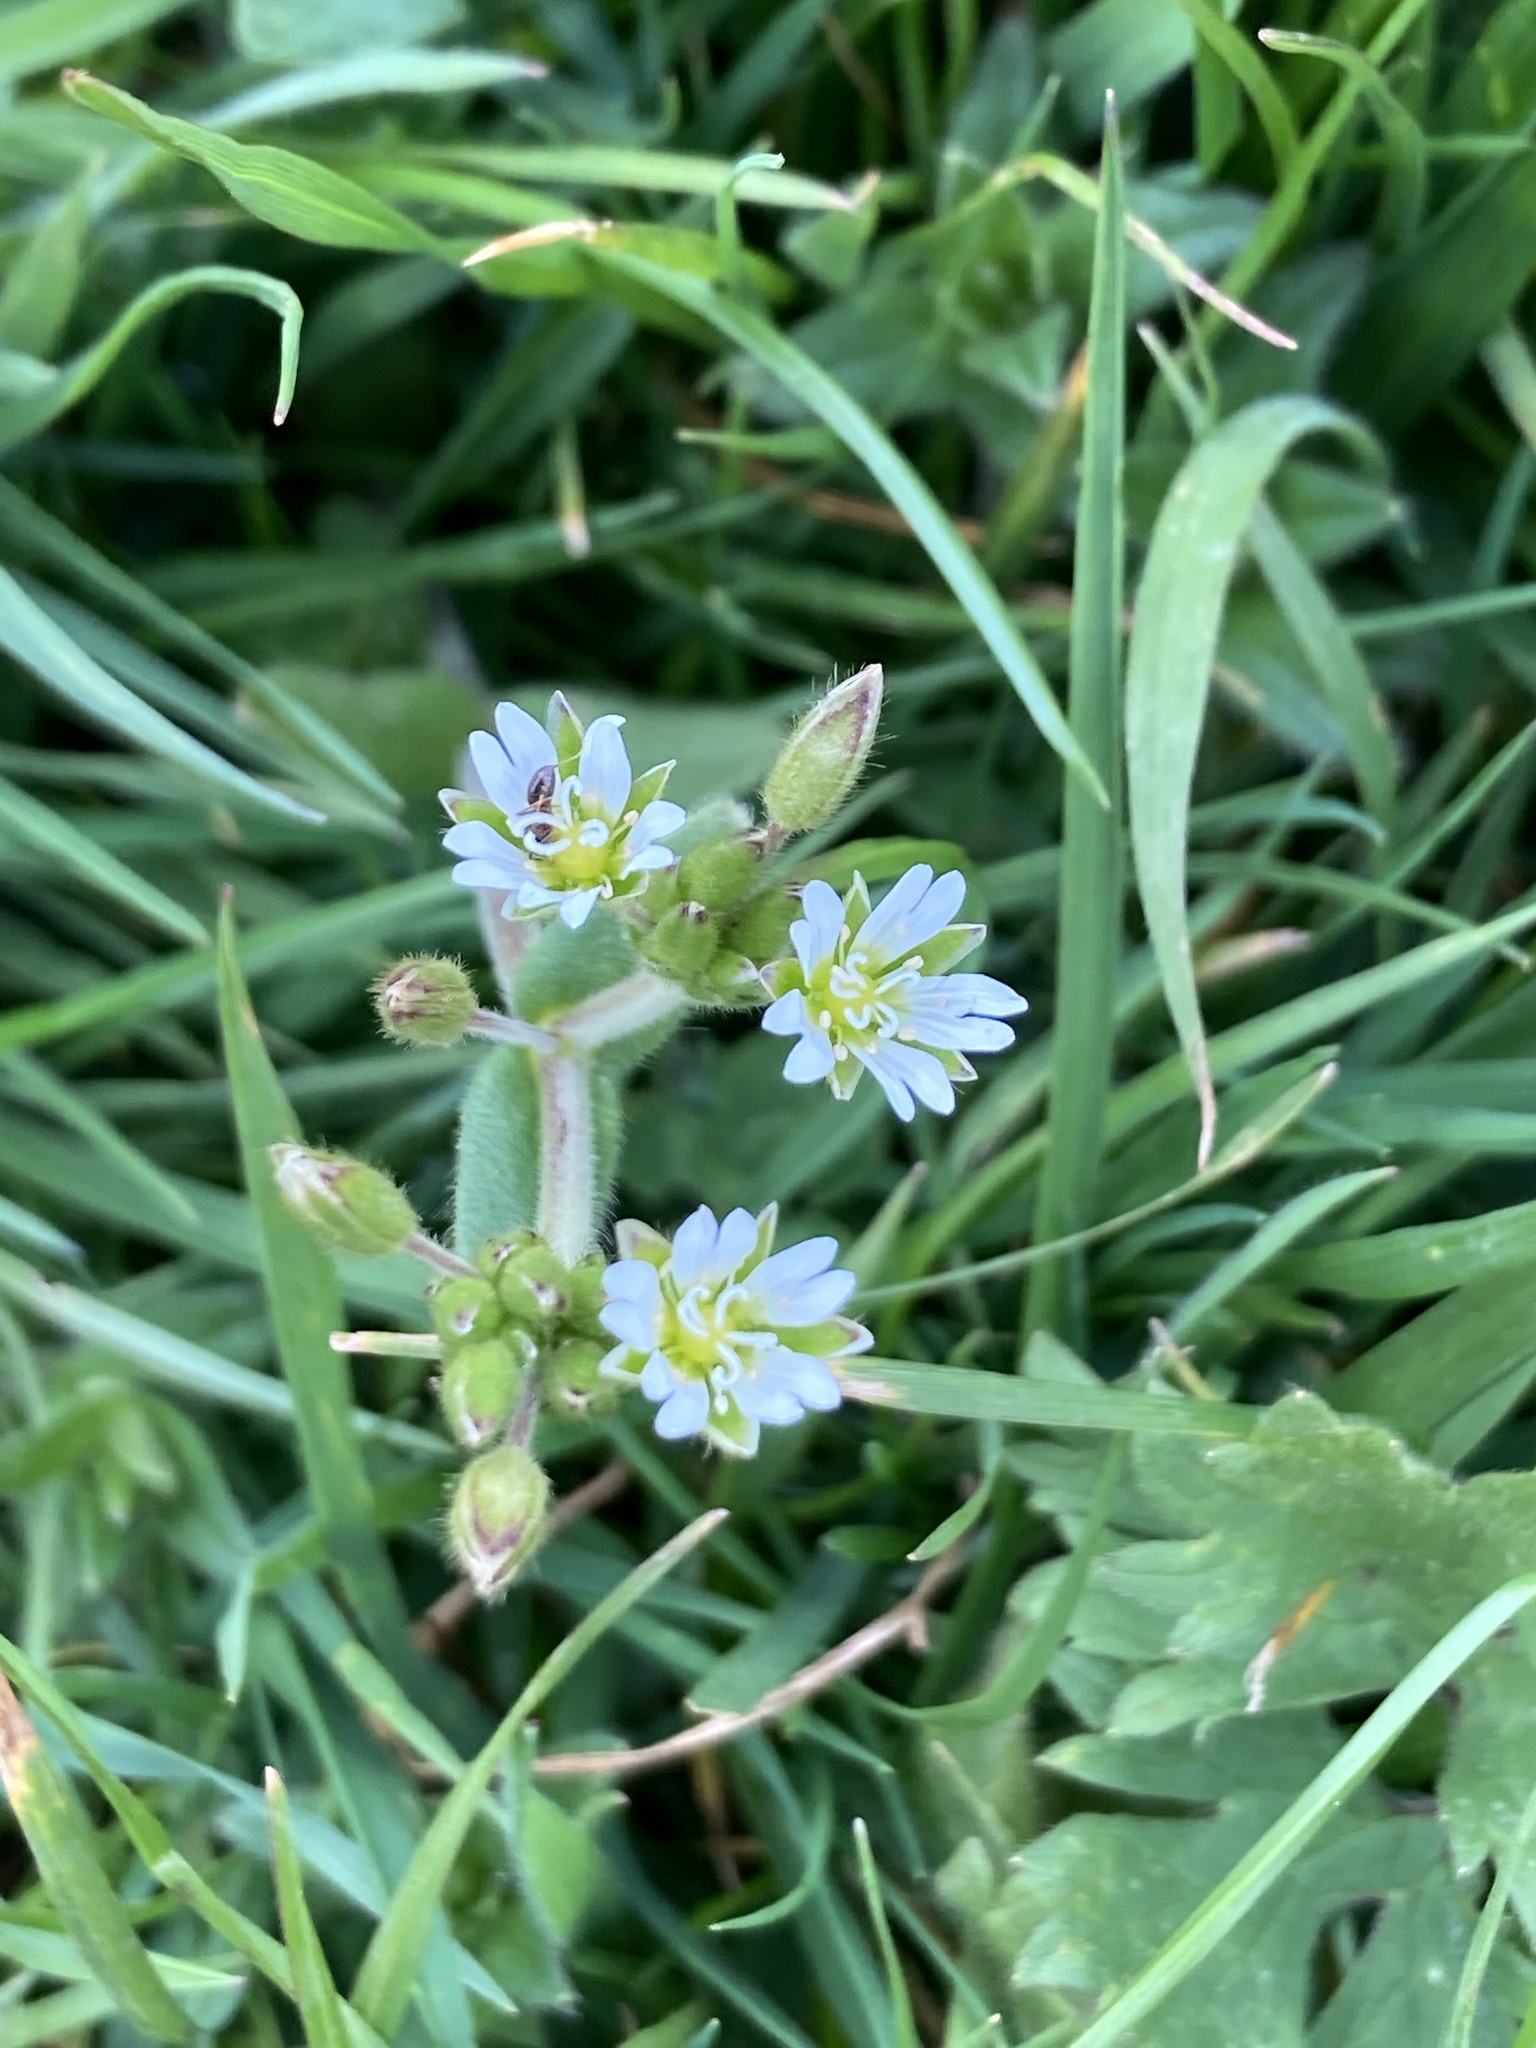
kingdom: Plantae
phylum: Tracheophyta
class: Magnoliopsida
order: Caryophyllales
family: Caryophyllaceae
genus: Cerastium
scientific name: Cerastium fontanum
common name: Common mouse-ear
